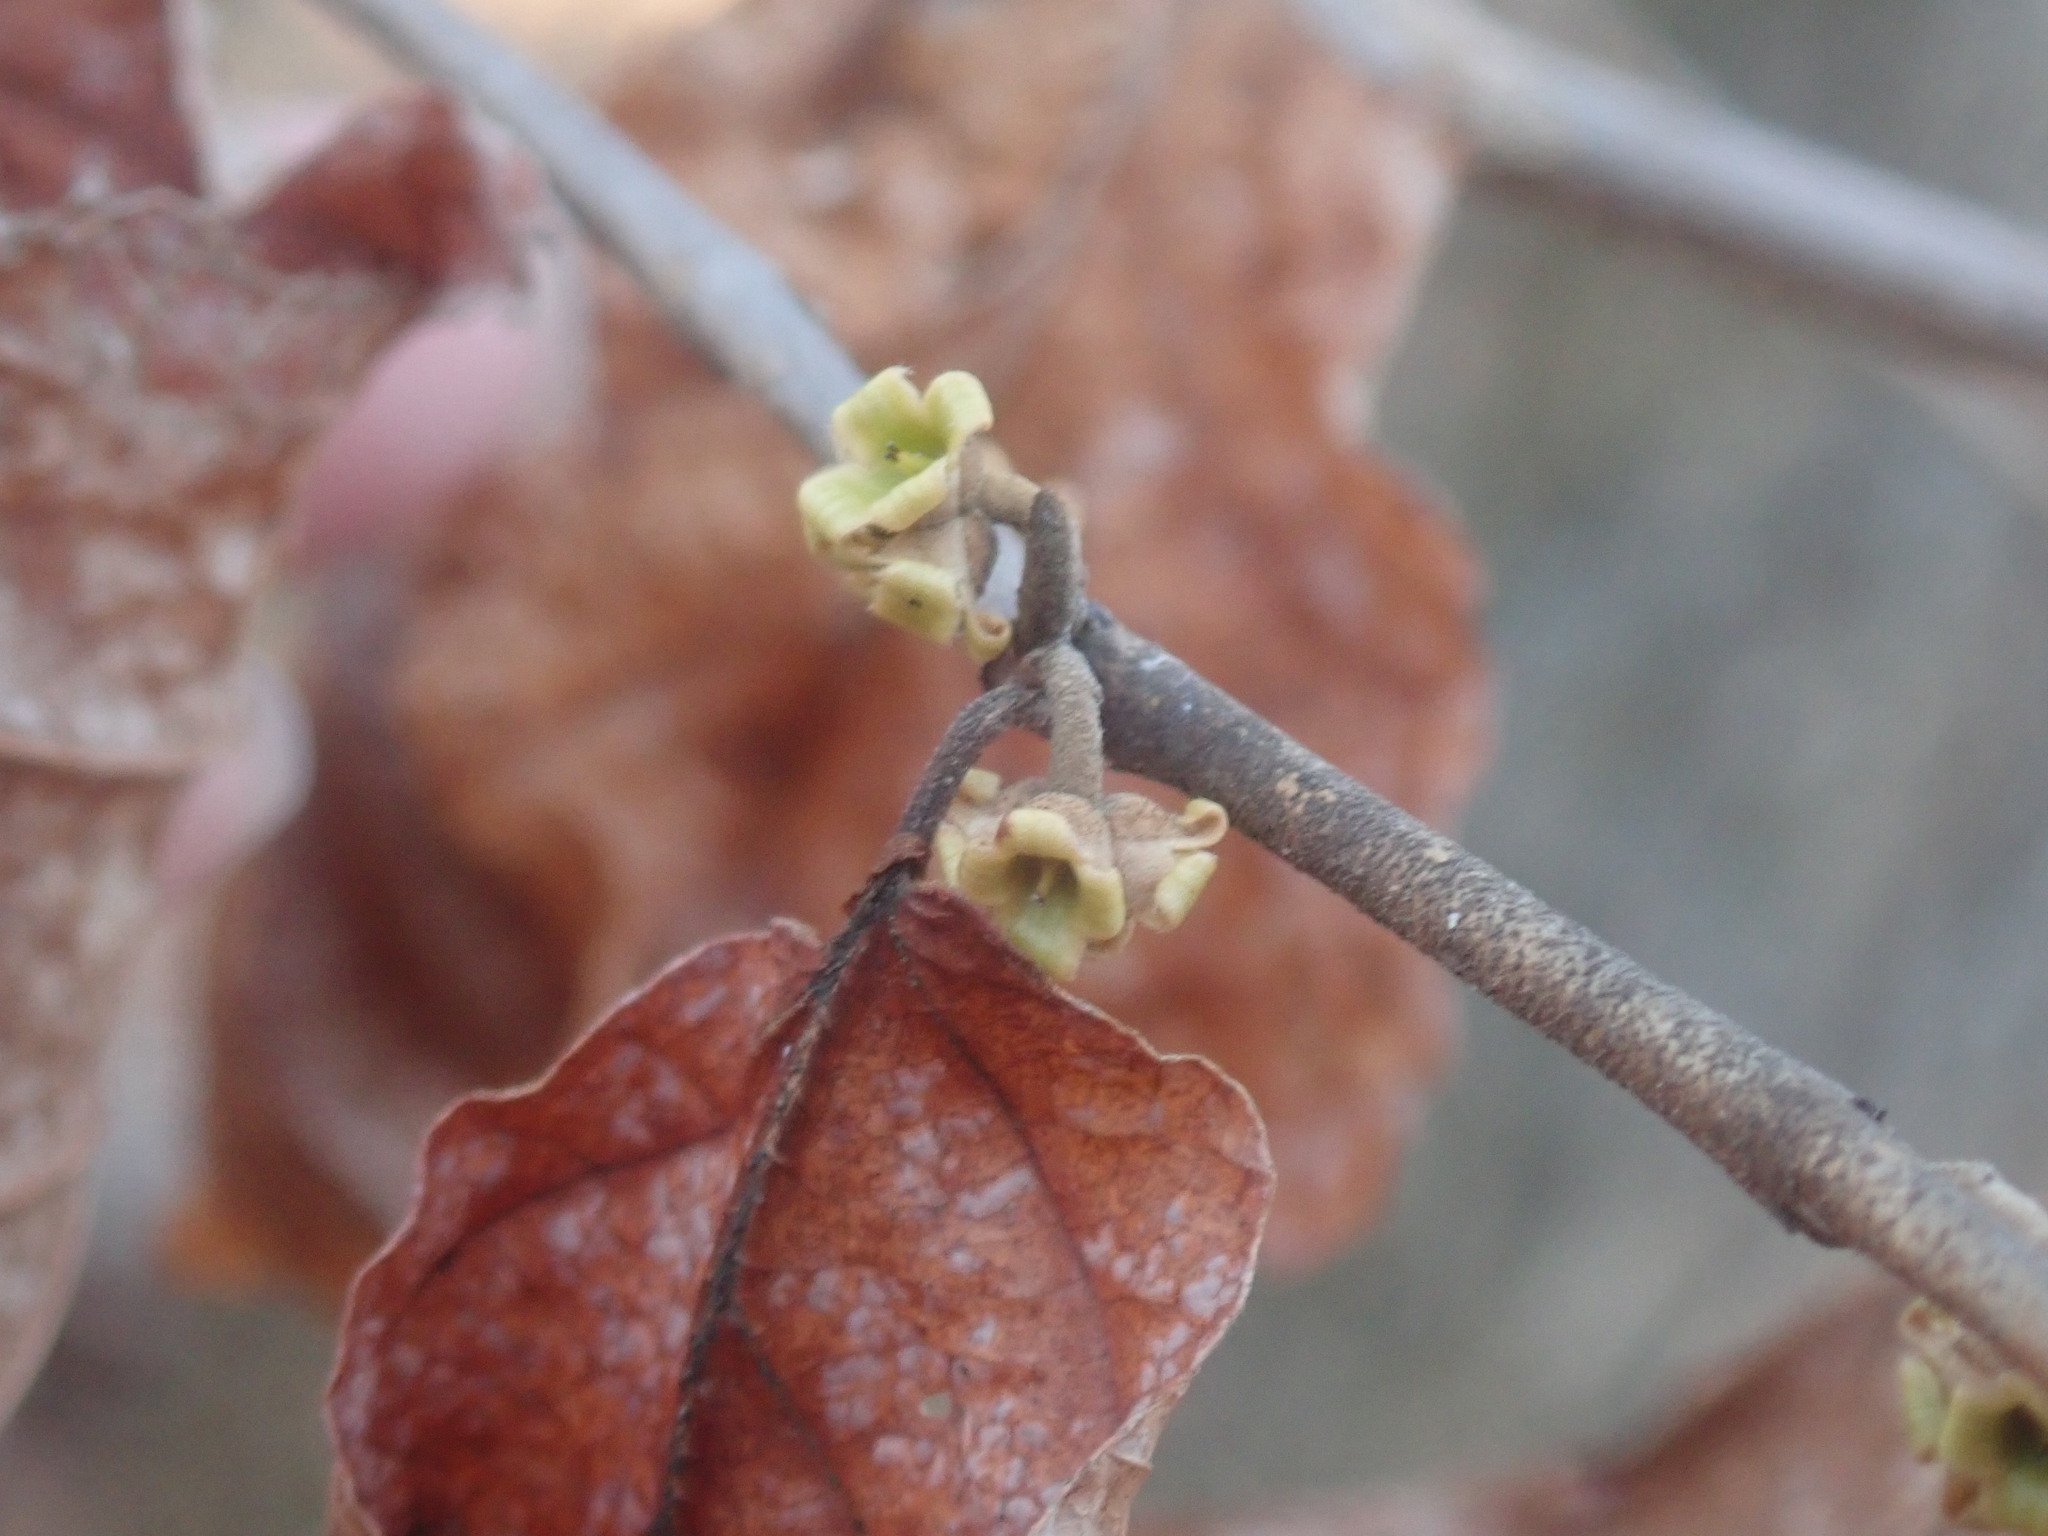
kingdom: Plantae
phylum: Tracheophyta
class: Magnoliopsida
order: Saxifragales
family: Hamamelidaceae
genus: Hamamelis
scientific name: Hamamelis virginiana
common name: Witch-hazel
